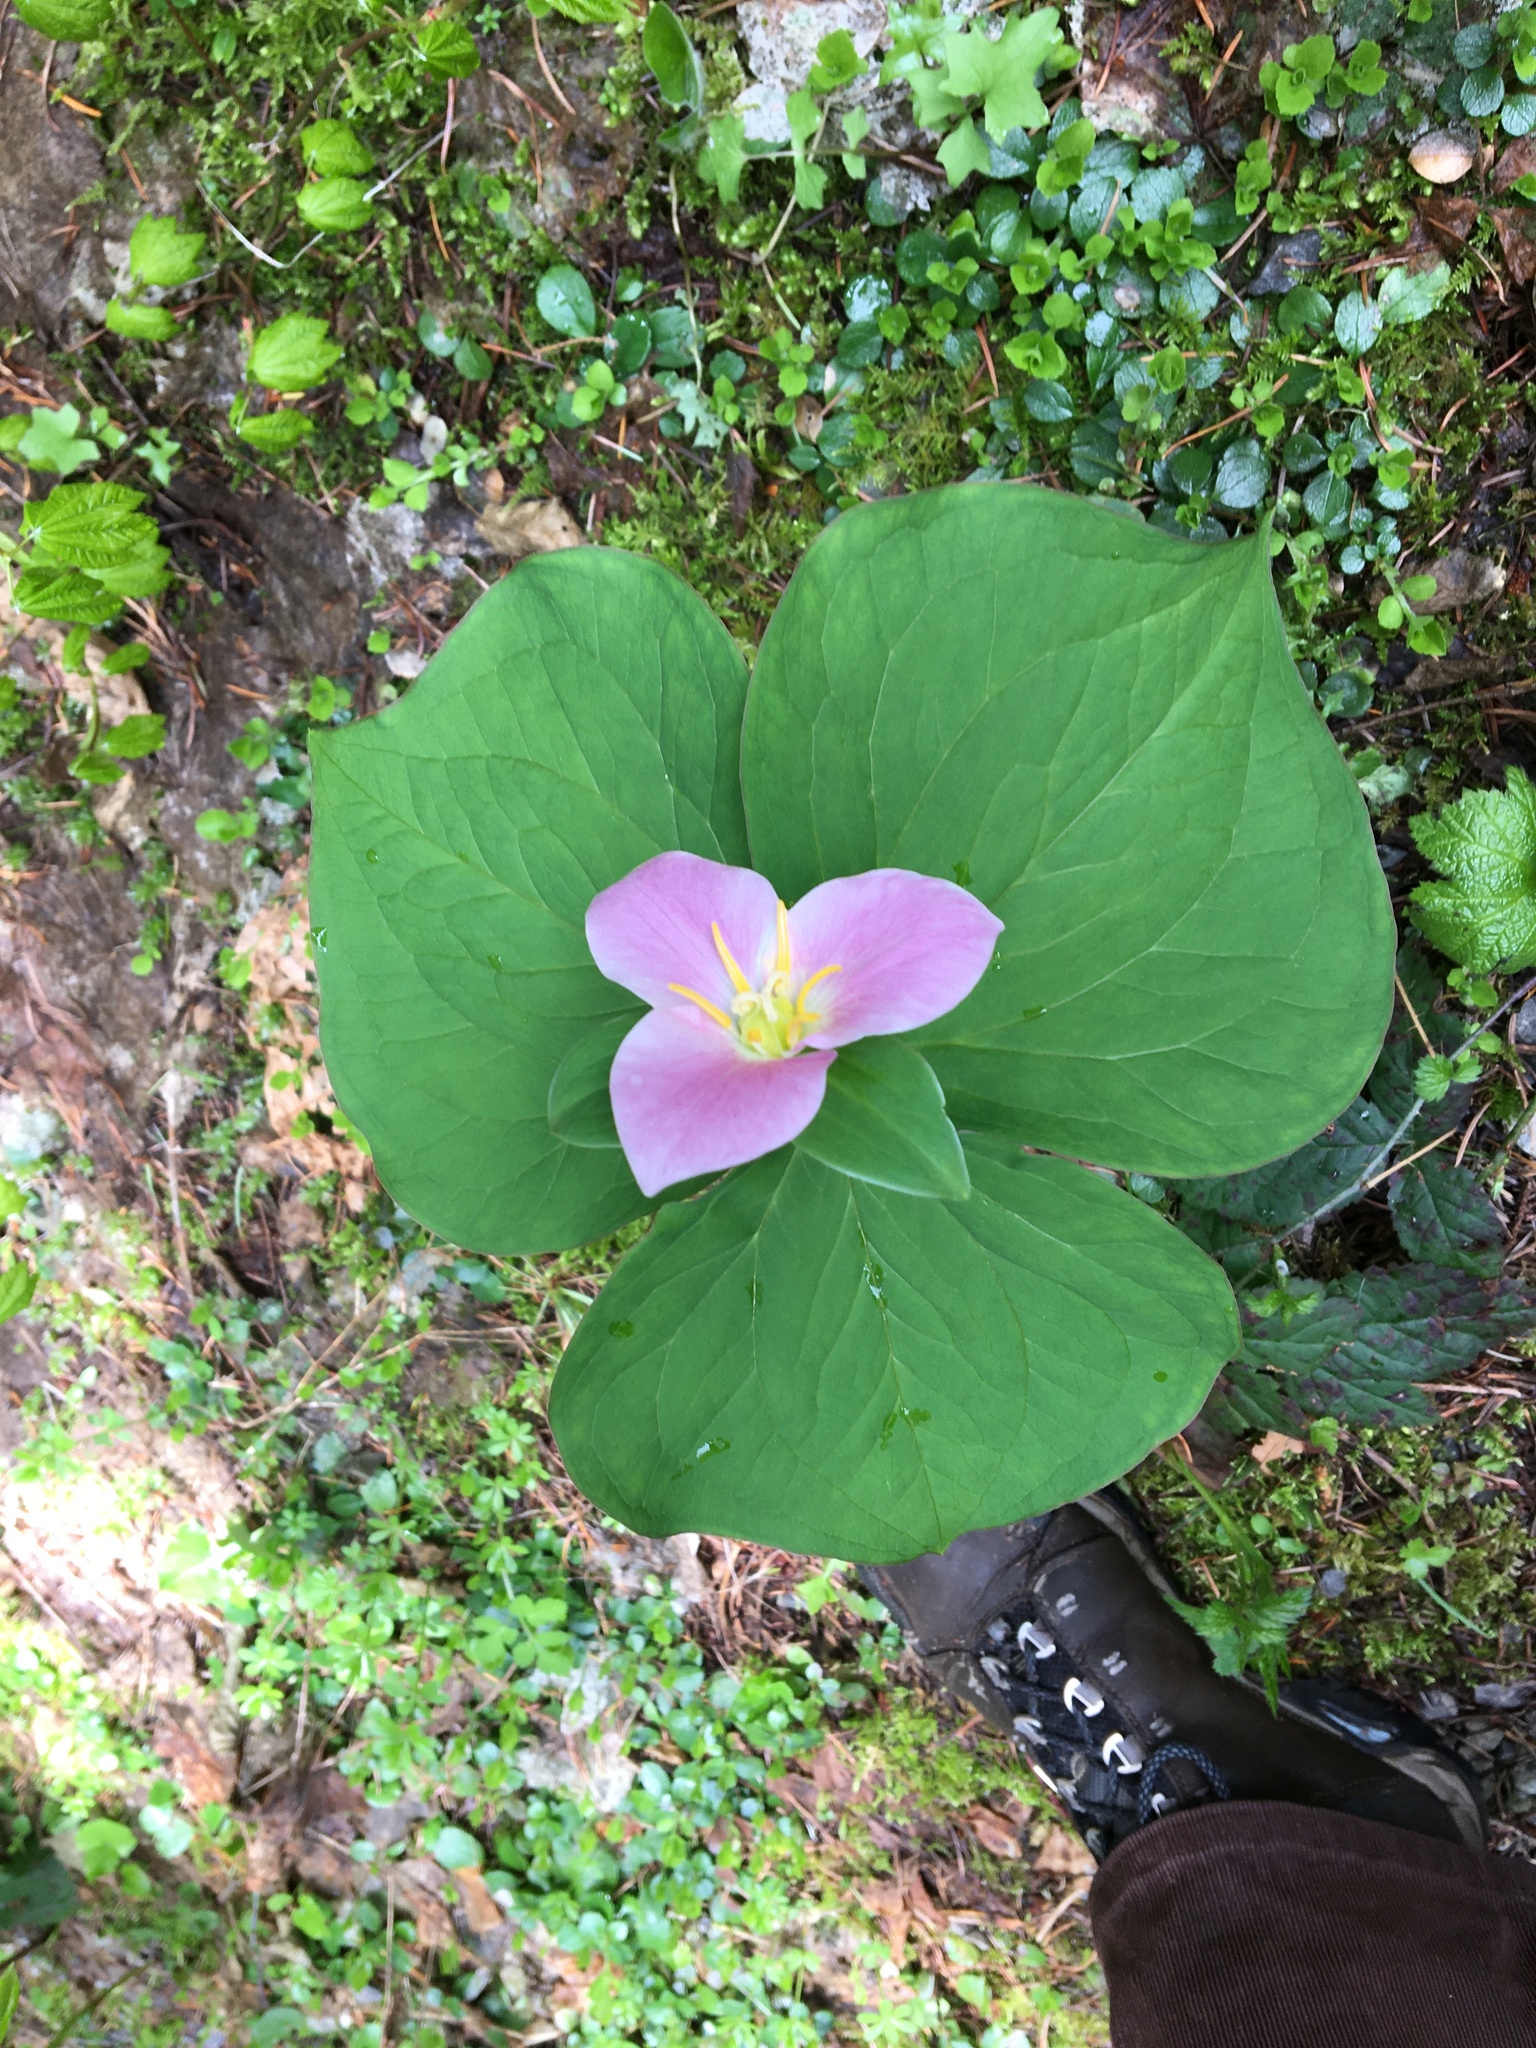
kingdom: Plantae
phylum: Tracheophyta
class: Liliopsida
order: Liliales
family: Melanthiaceae
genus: Trillium
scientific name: Trillium ovatum
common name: Pacific trillium
